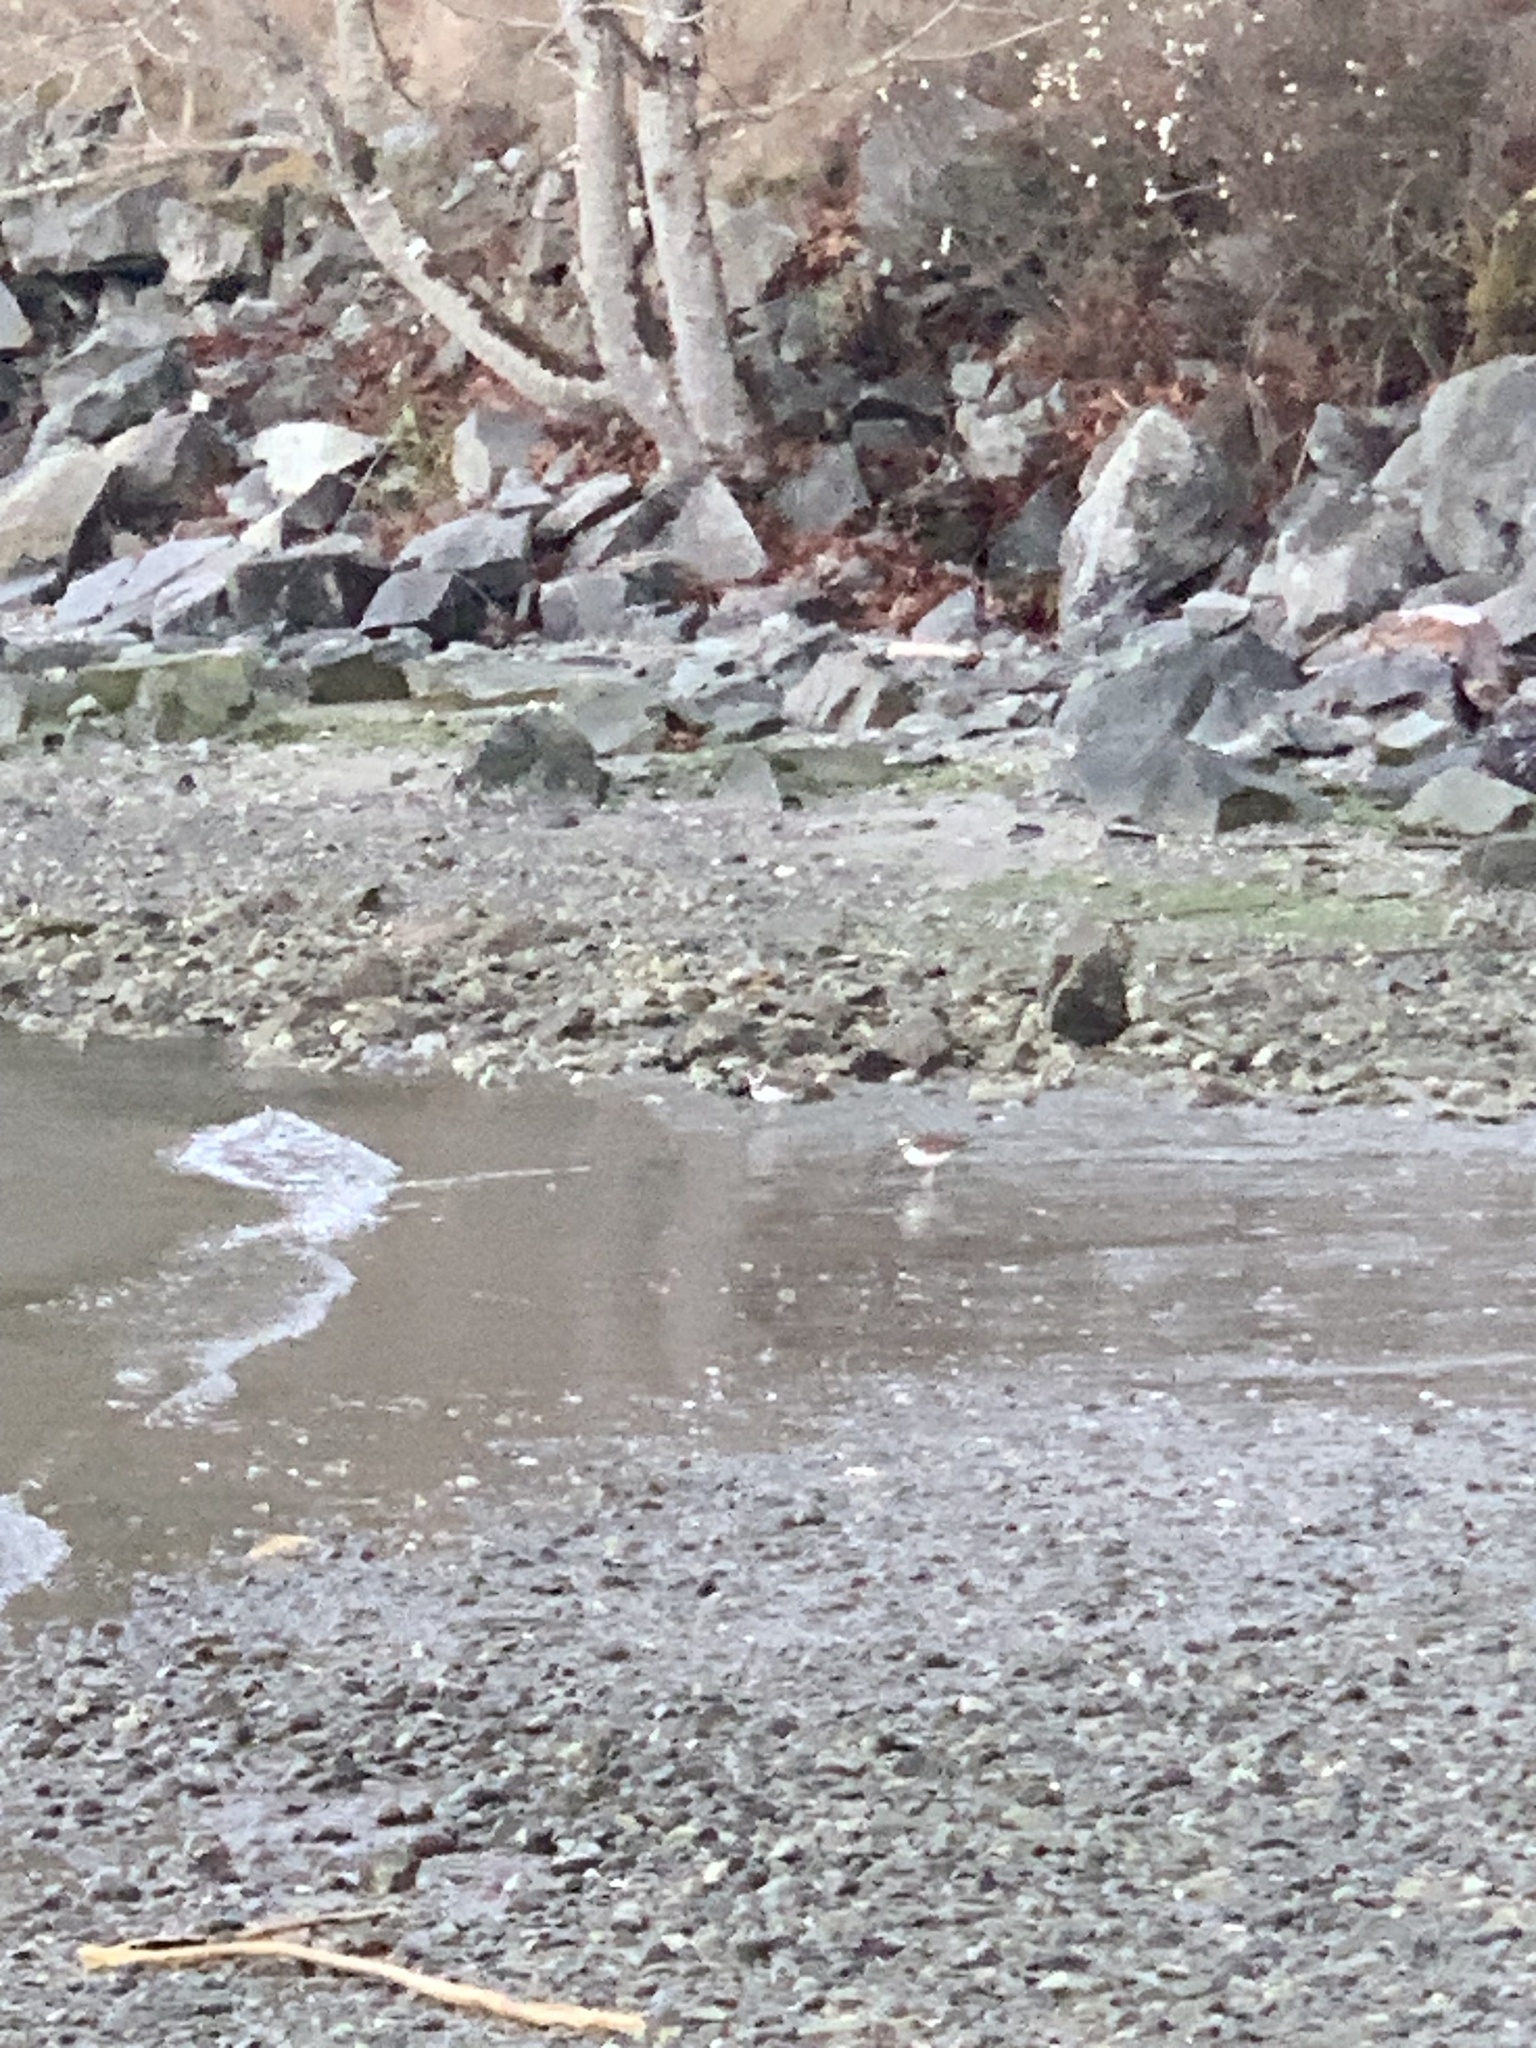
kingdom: Animalia
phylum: Chordata
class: Aves
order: Charadriiformes
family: Charadriidae
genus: Charadrius
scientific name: Charadrius vociferus
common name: Killdeer
